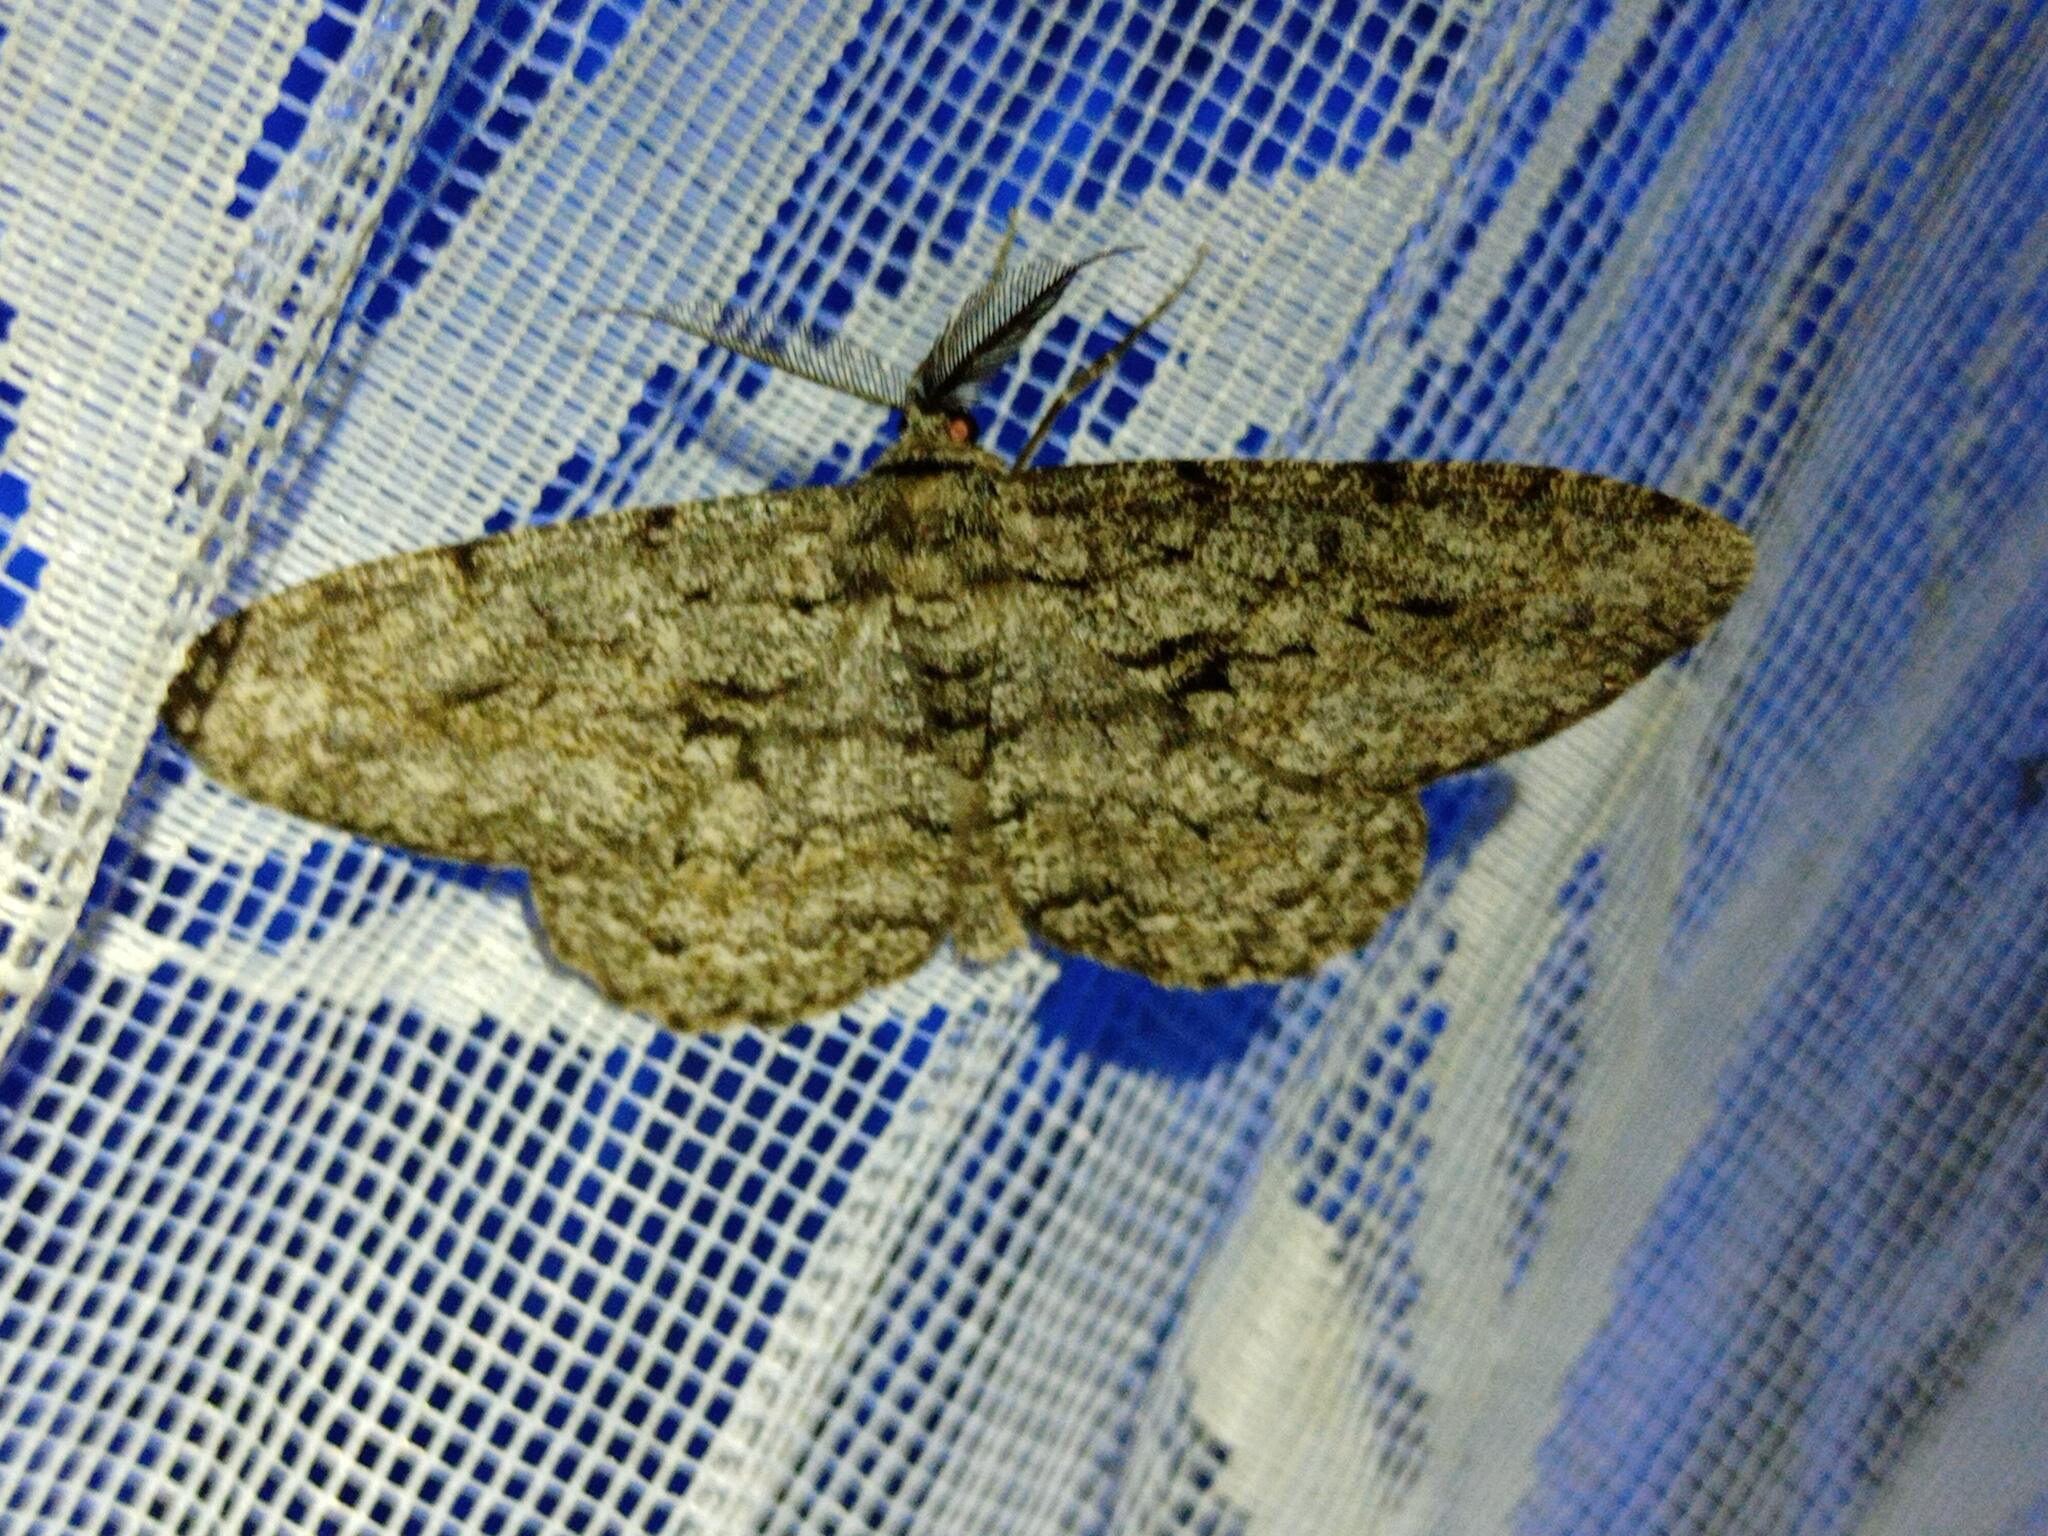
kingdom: Animalia
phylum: Arthropoda
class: Insecta
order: Lepidoptera
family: Geometridae
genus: Hypomecis
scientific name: Hypomecis roboraria
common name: Great oak beauty
